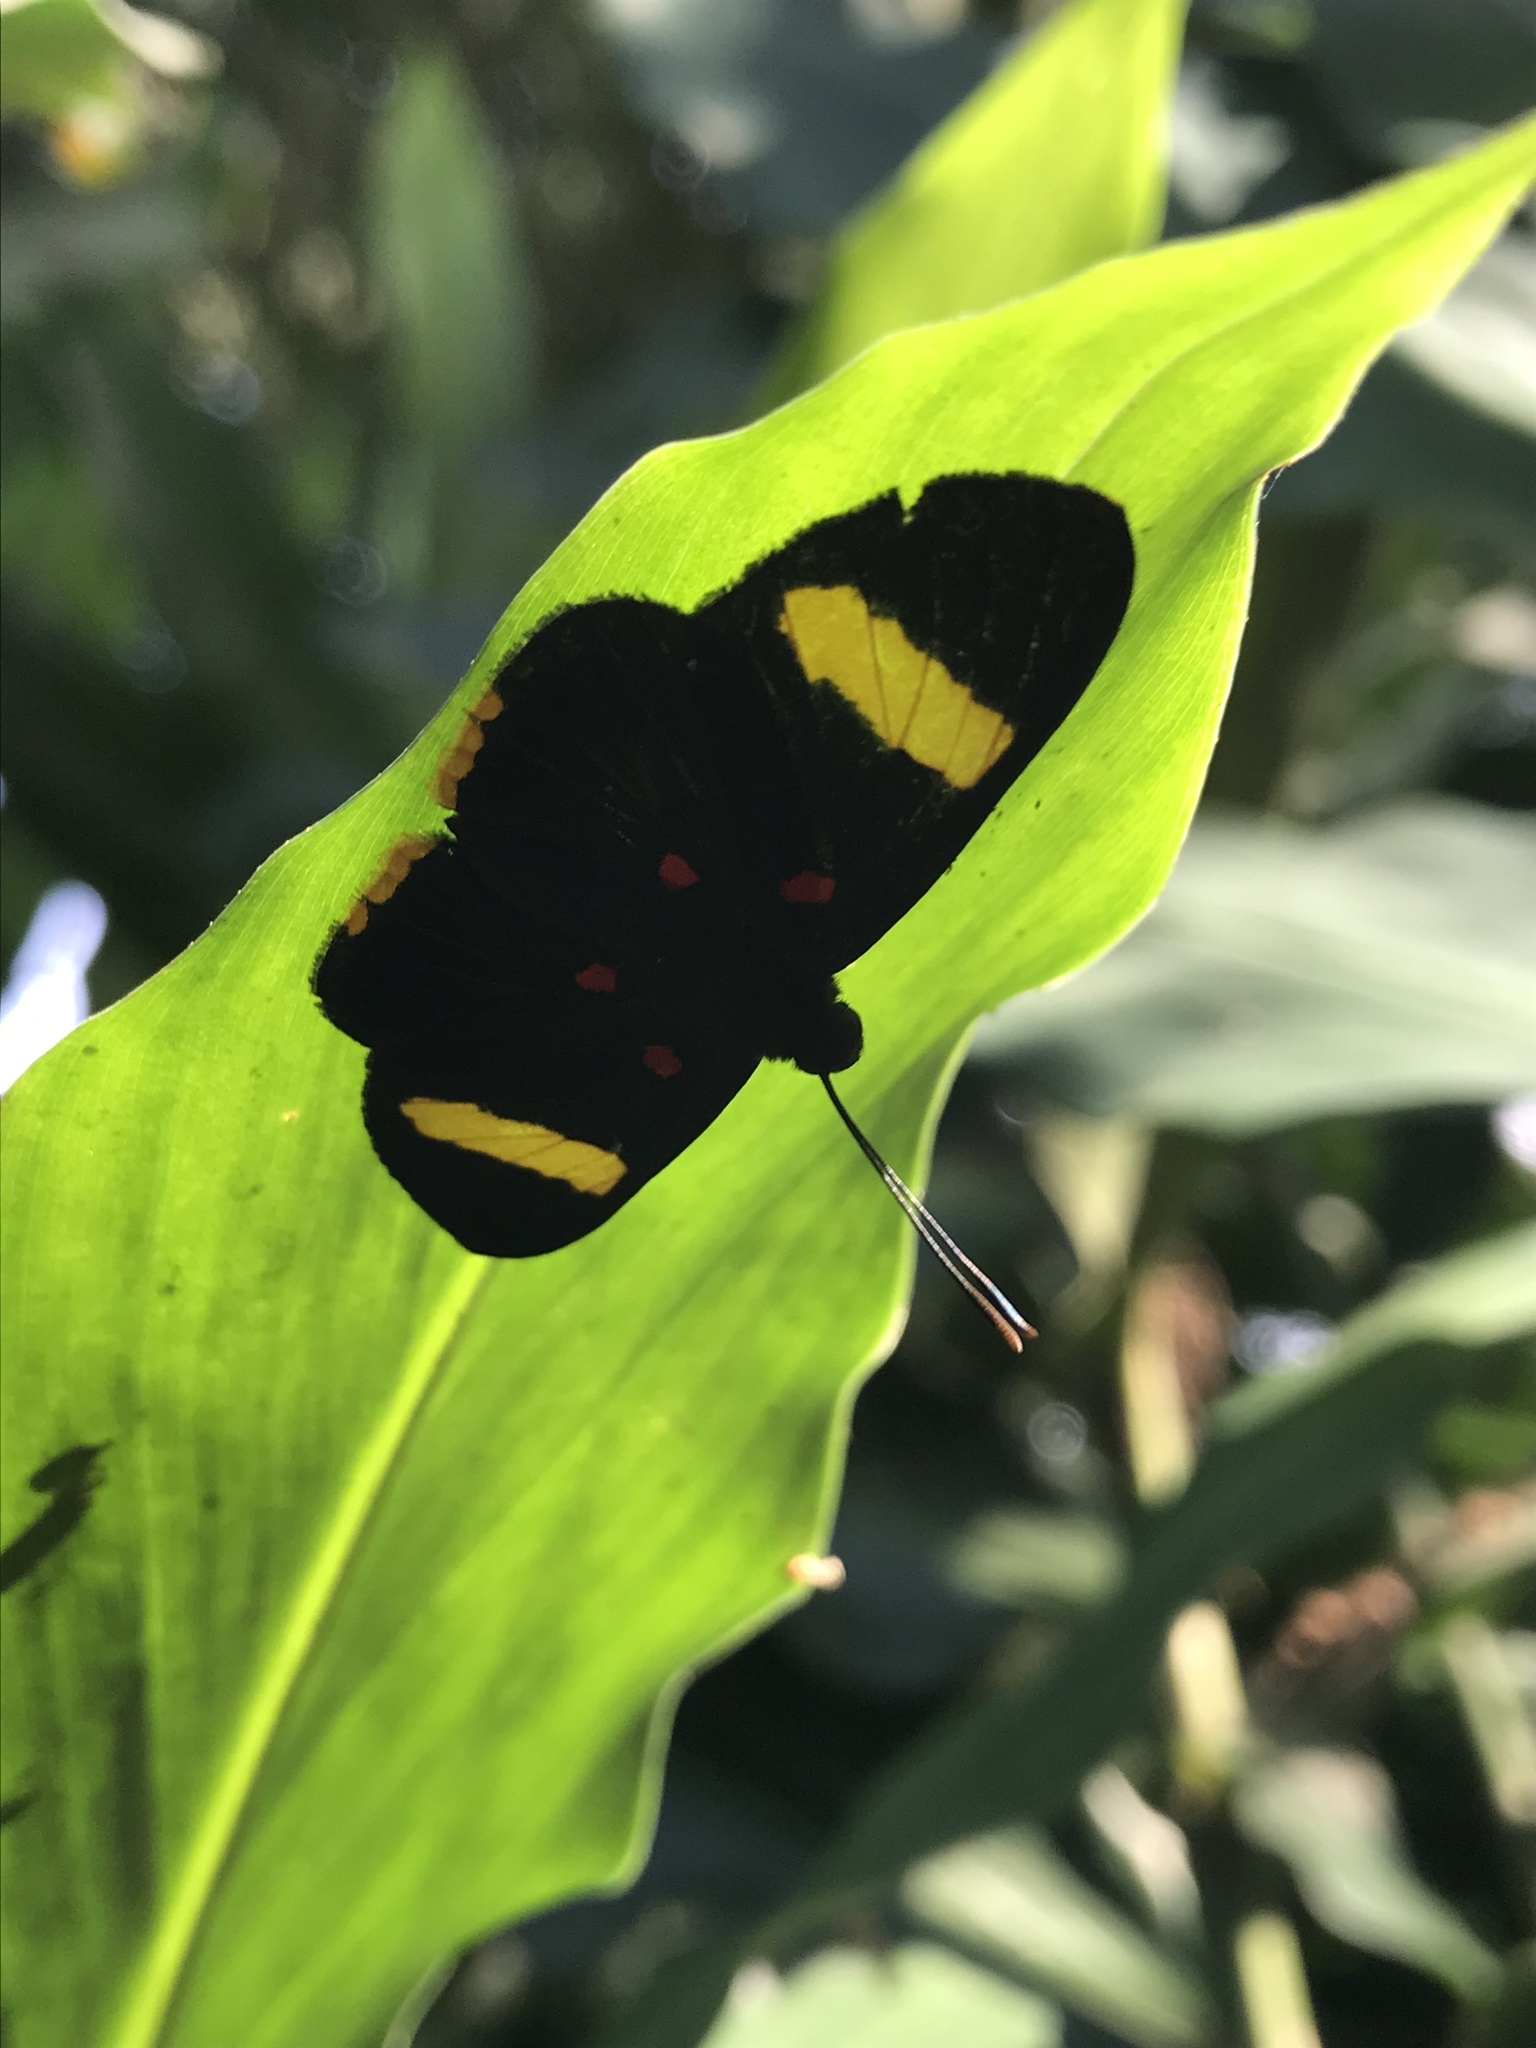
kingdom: Animalia
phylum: Arthropoda
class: Insecta
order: Lepidoptera
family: Lycaenidae
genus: Melanis
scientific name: Melanis electron
